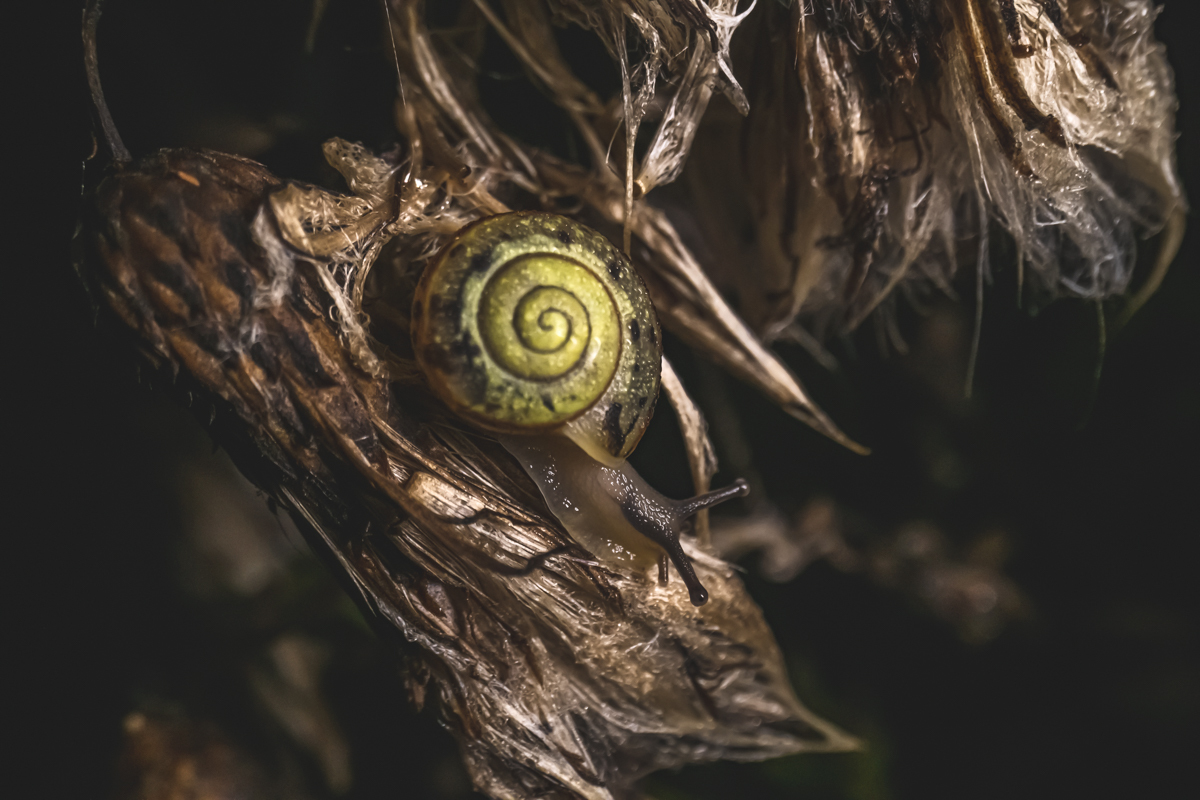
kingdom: Animalia
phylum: Mollusca
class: Gastropoda
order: Stylommatophora
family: Camaenidae
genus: Fruticicola
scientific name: Fruticicola fruticum
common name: Bush snail
